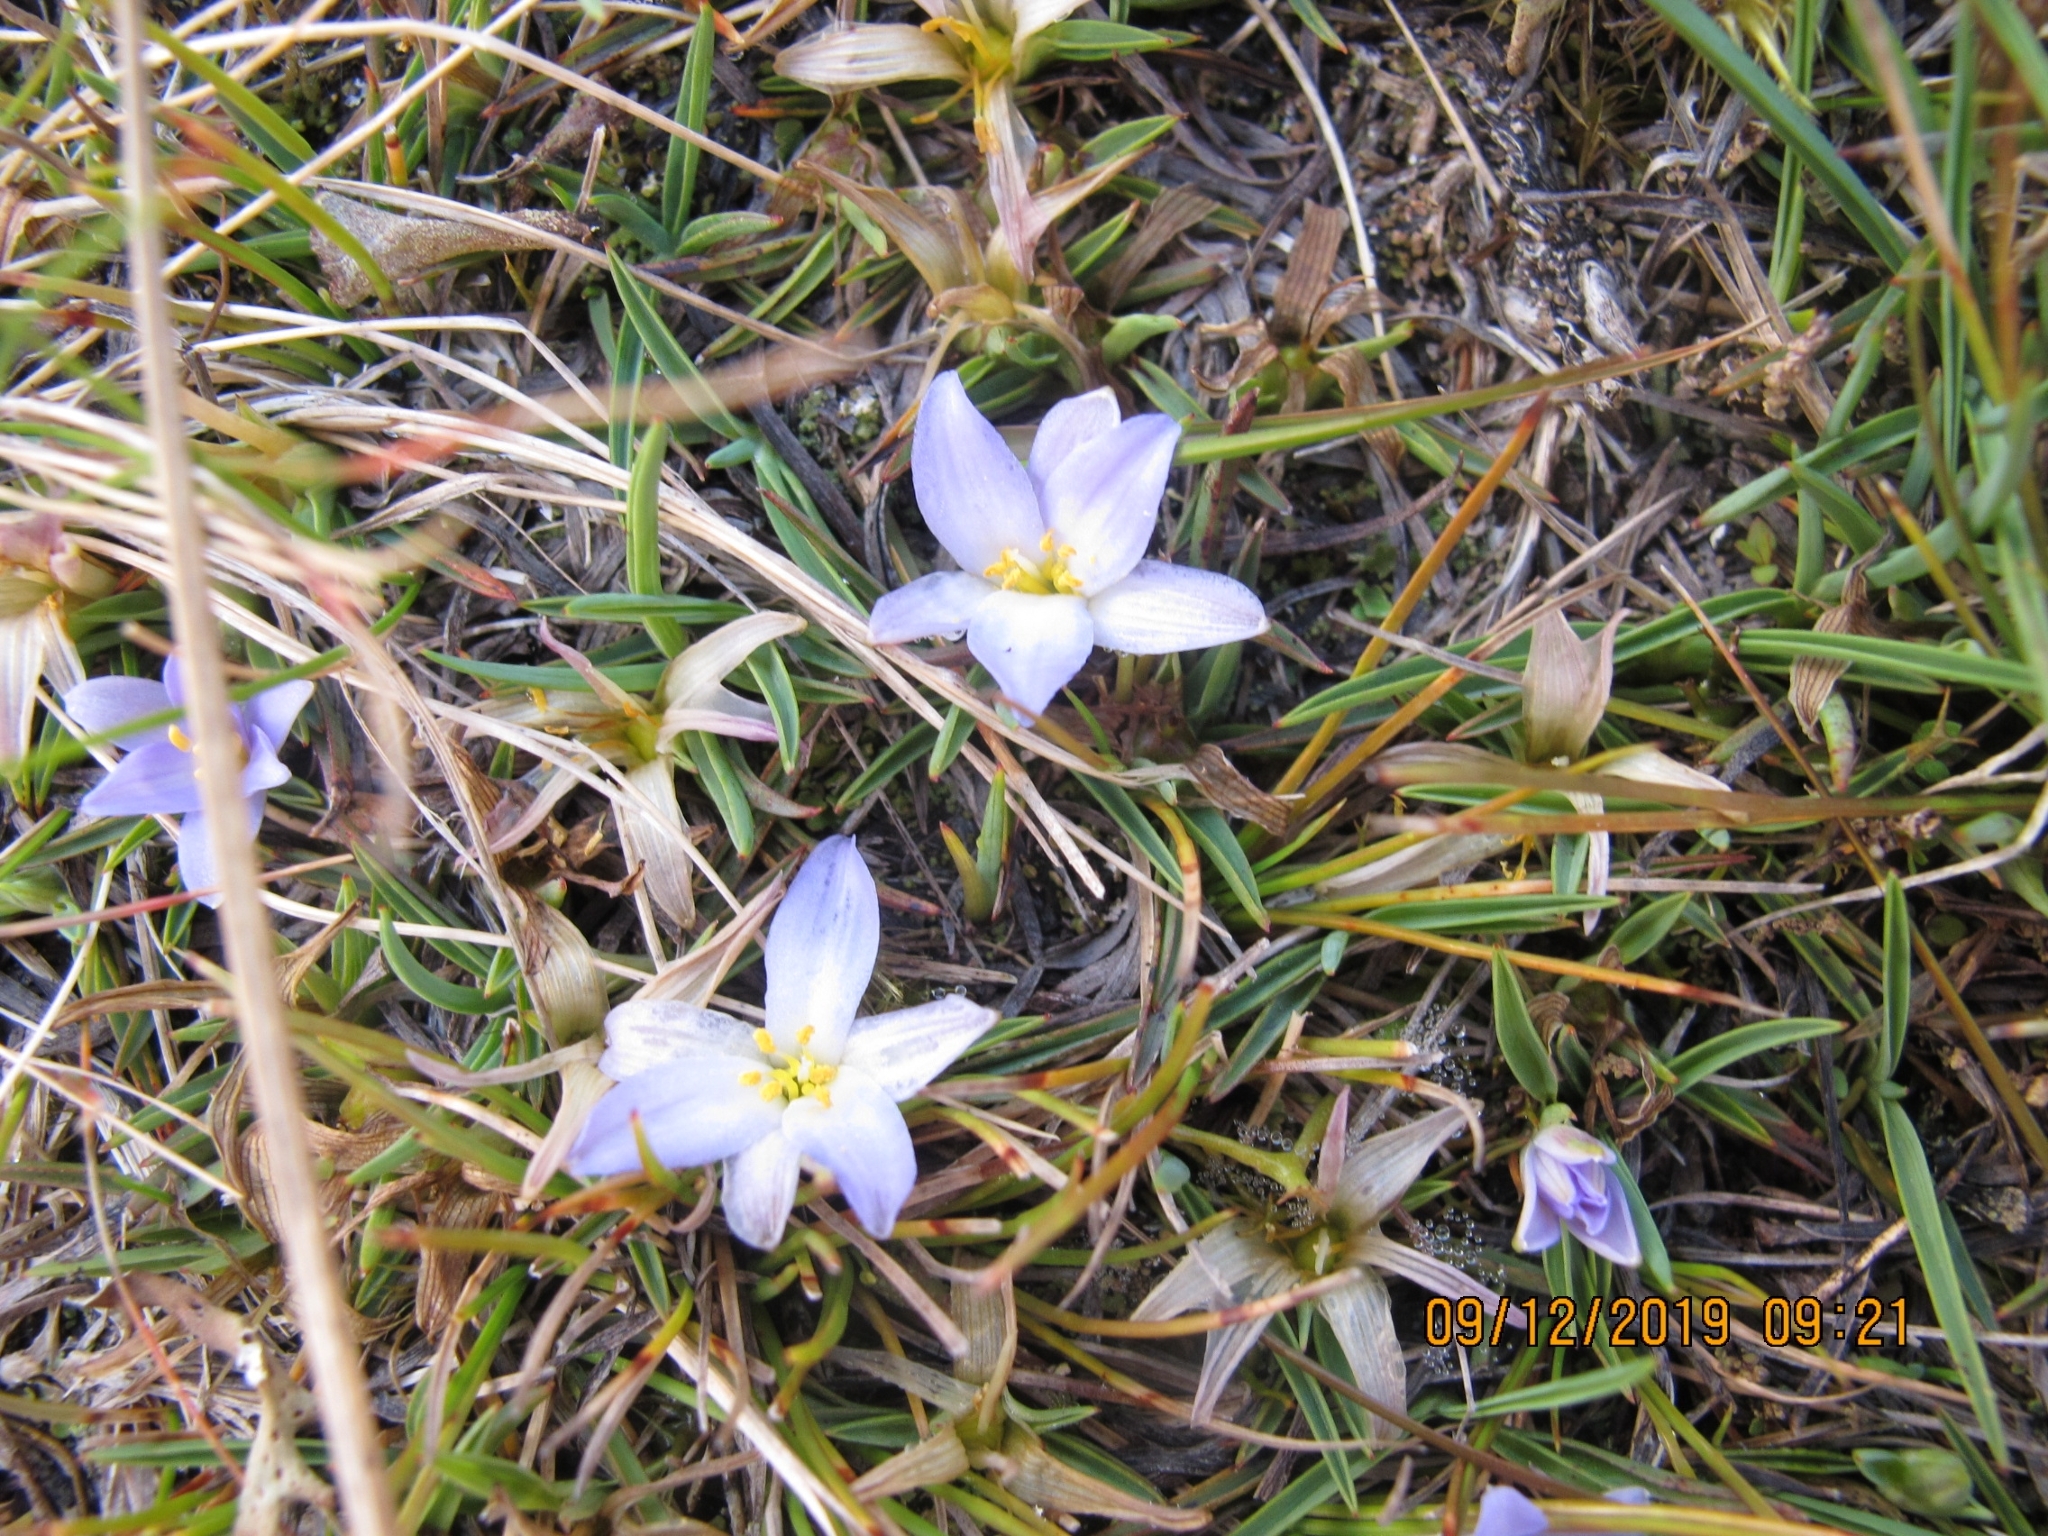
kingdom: Plantae
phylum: Tracheophyta
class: Liliopsida
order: Asparagales
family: Asphodelaceae
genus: Herpolirion
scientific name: Herpolirion novae-zelandiae
